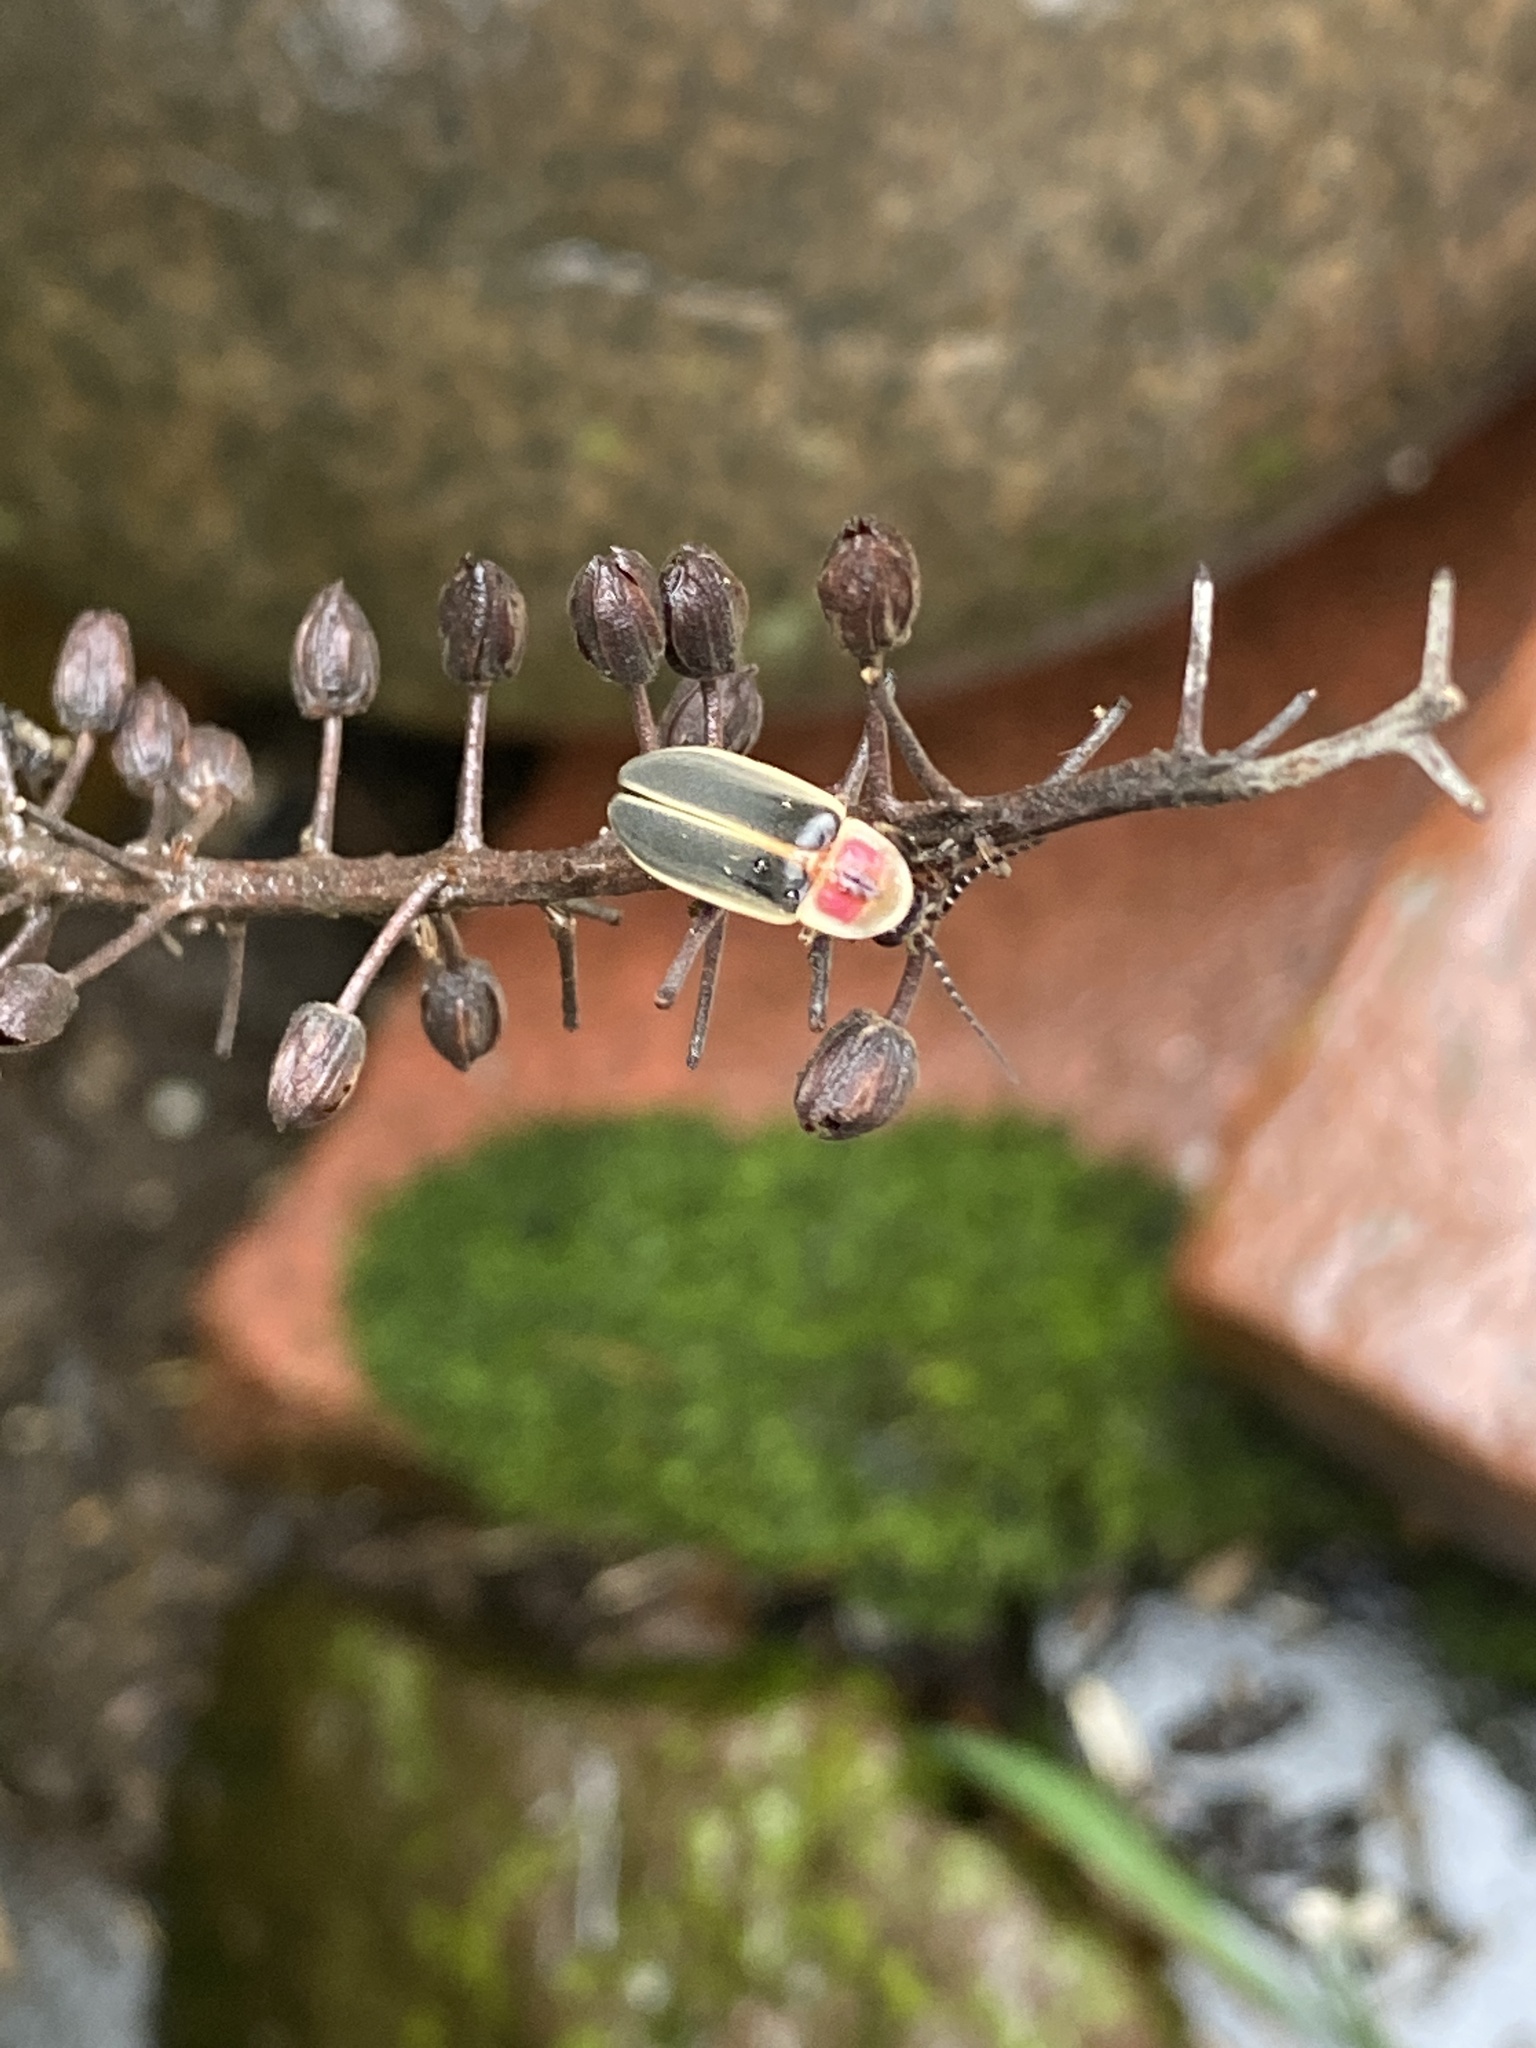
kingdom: Animalia
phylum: Arthropoda
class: Insecta
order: Coleoptera
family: Lampyridae
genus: Photinus
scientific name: Photinus pyralis
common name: Big dipper firefly
